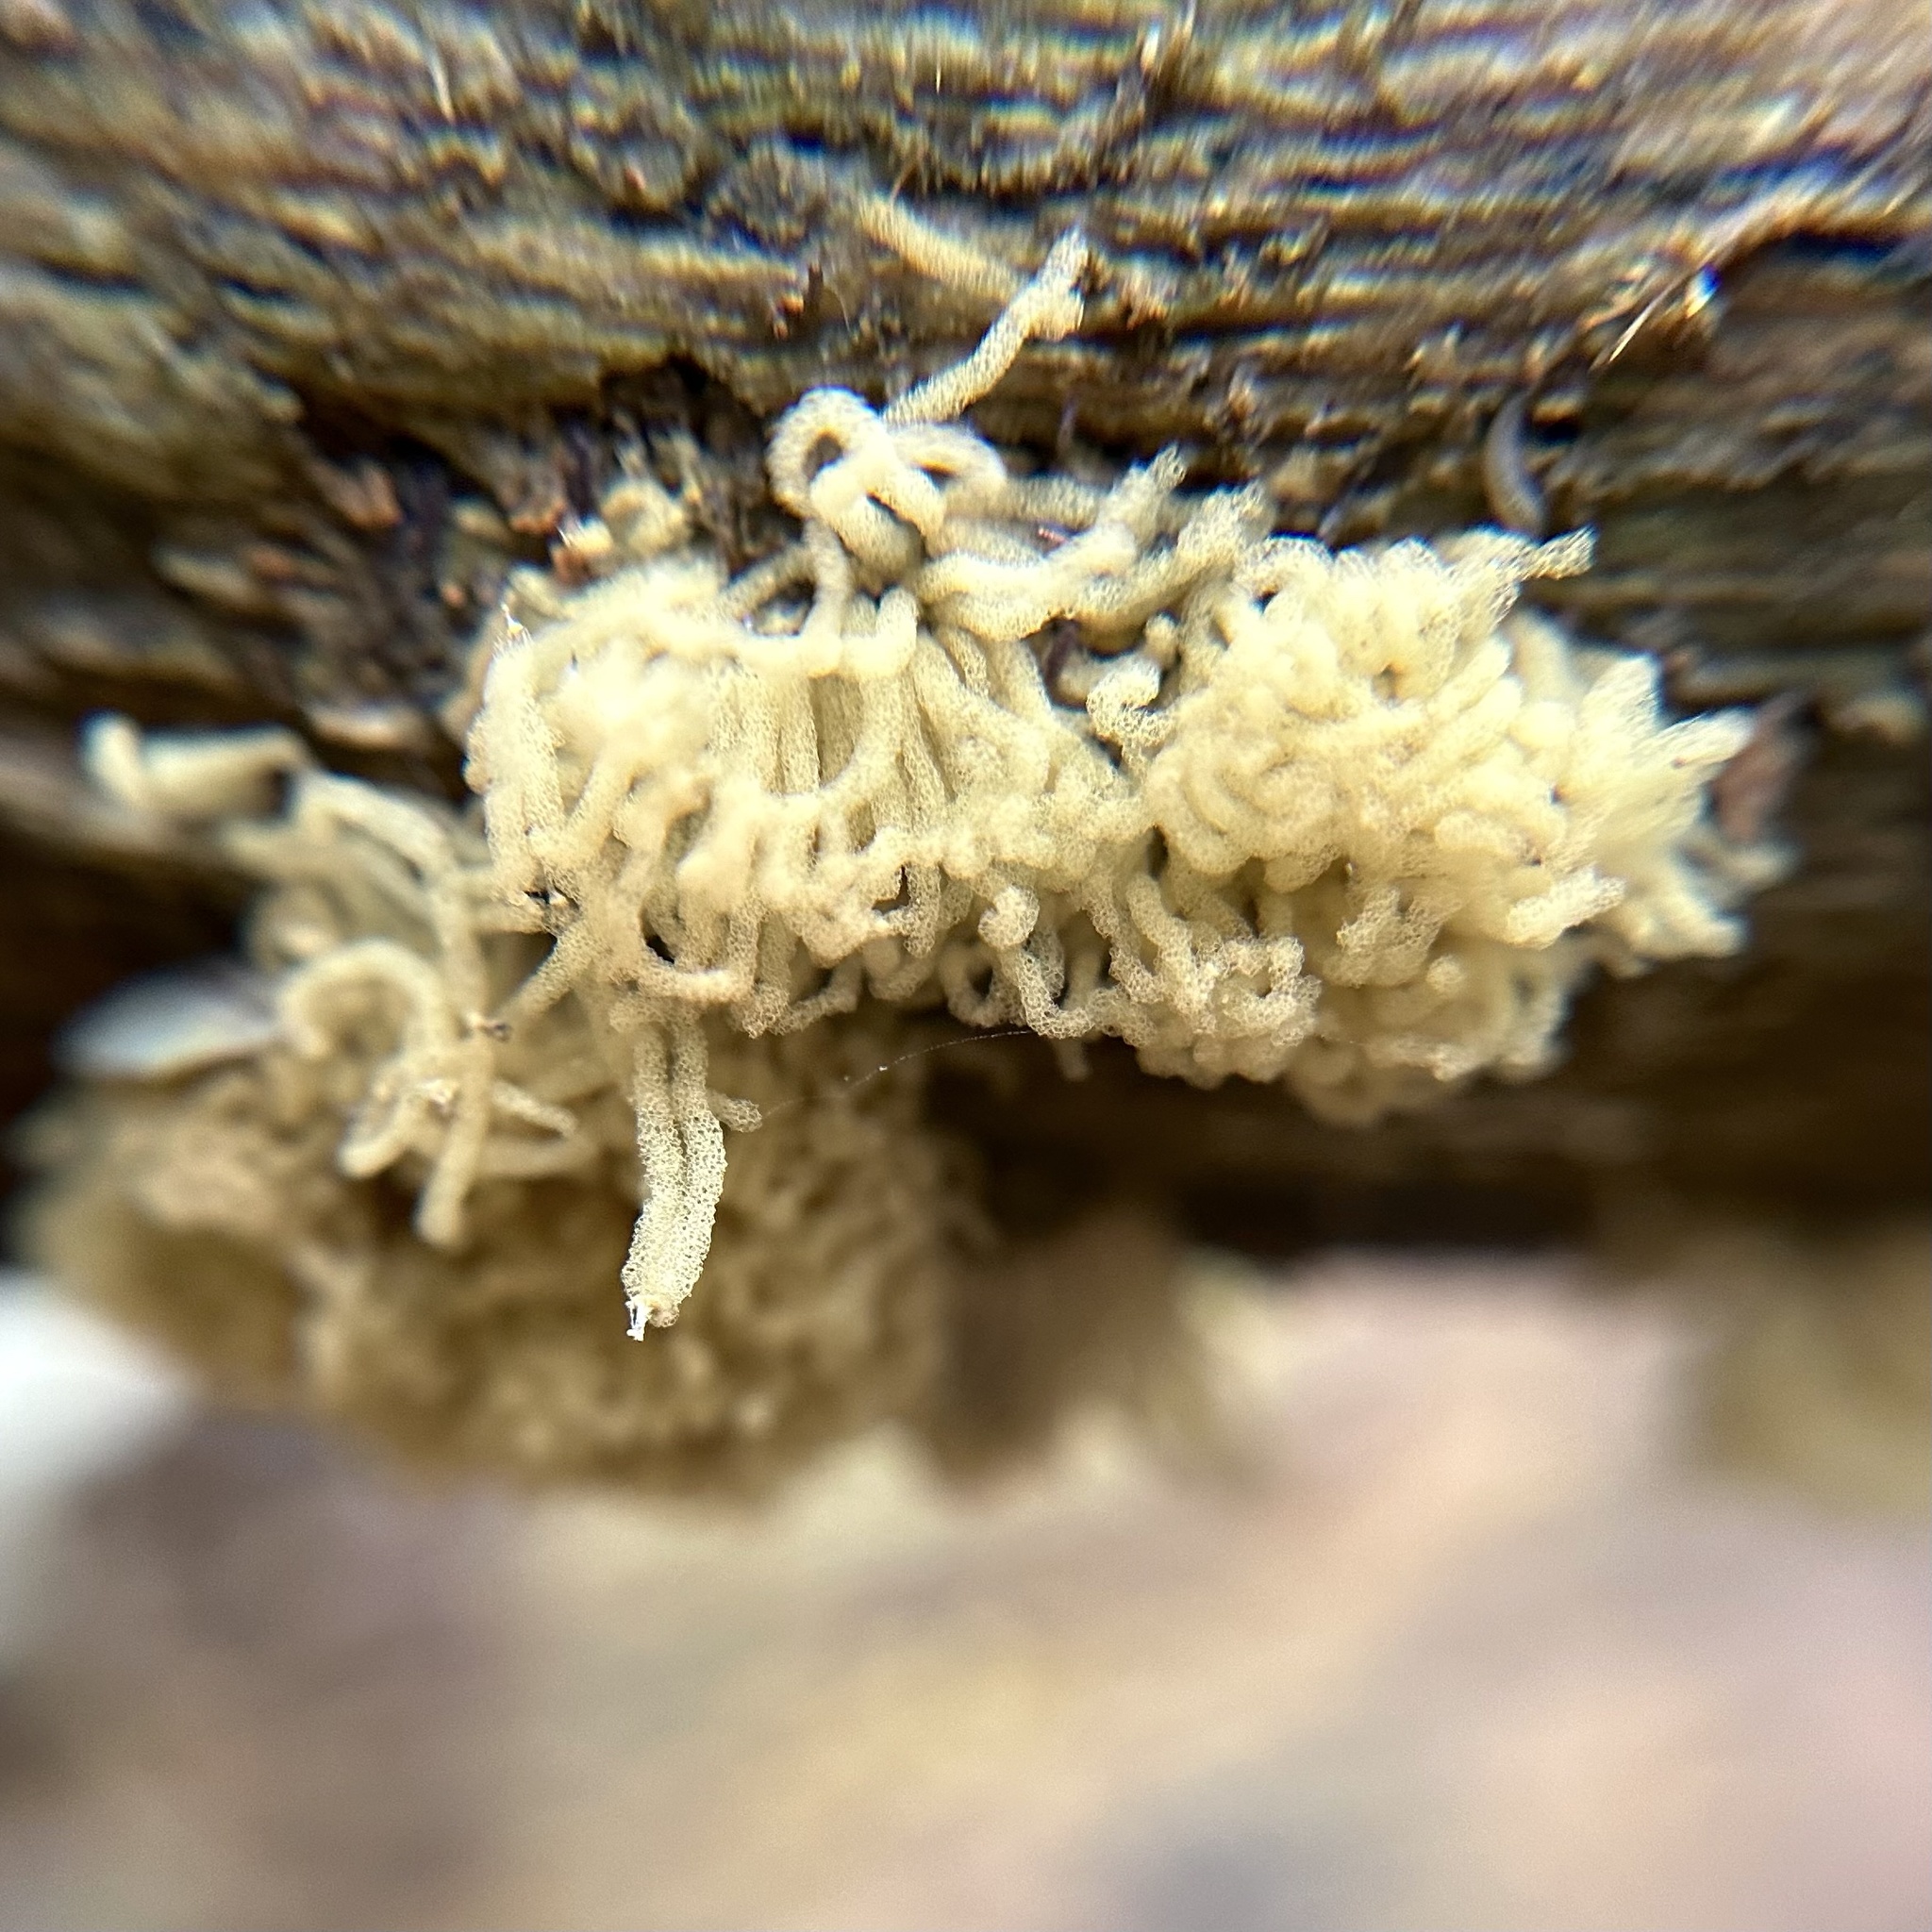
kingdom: Protozoa
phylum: Mycetozoa
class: Myxomycetes
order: Trichiales
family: Arcyriaceae
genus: Arcyria
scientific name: Arcyria obvelata
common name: Yellow carnival candy slime
